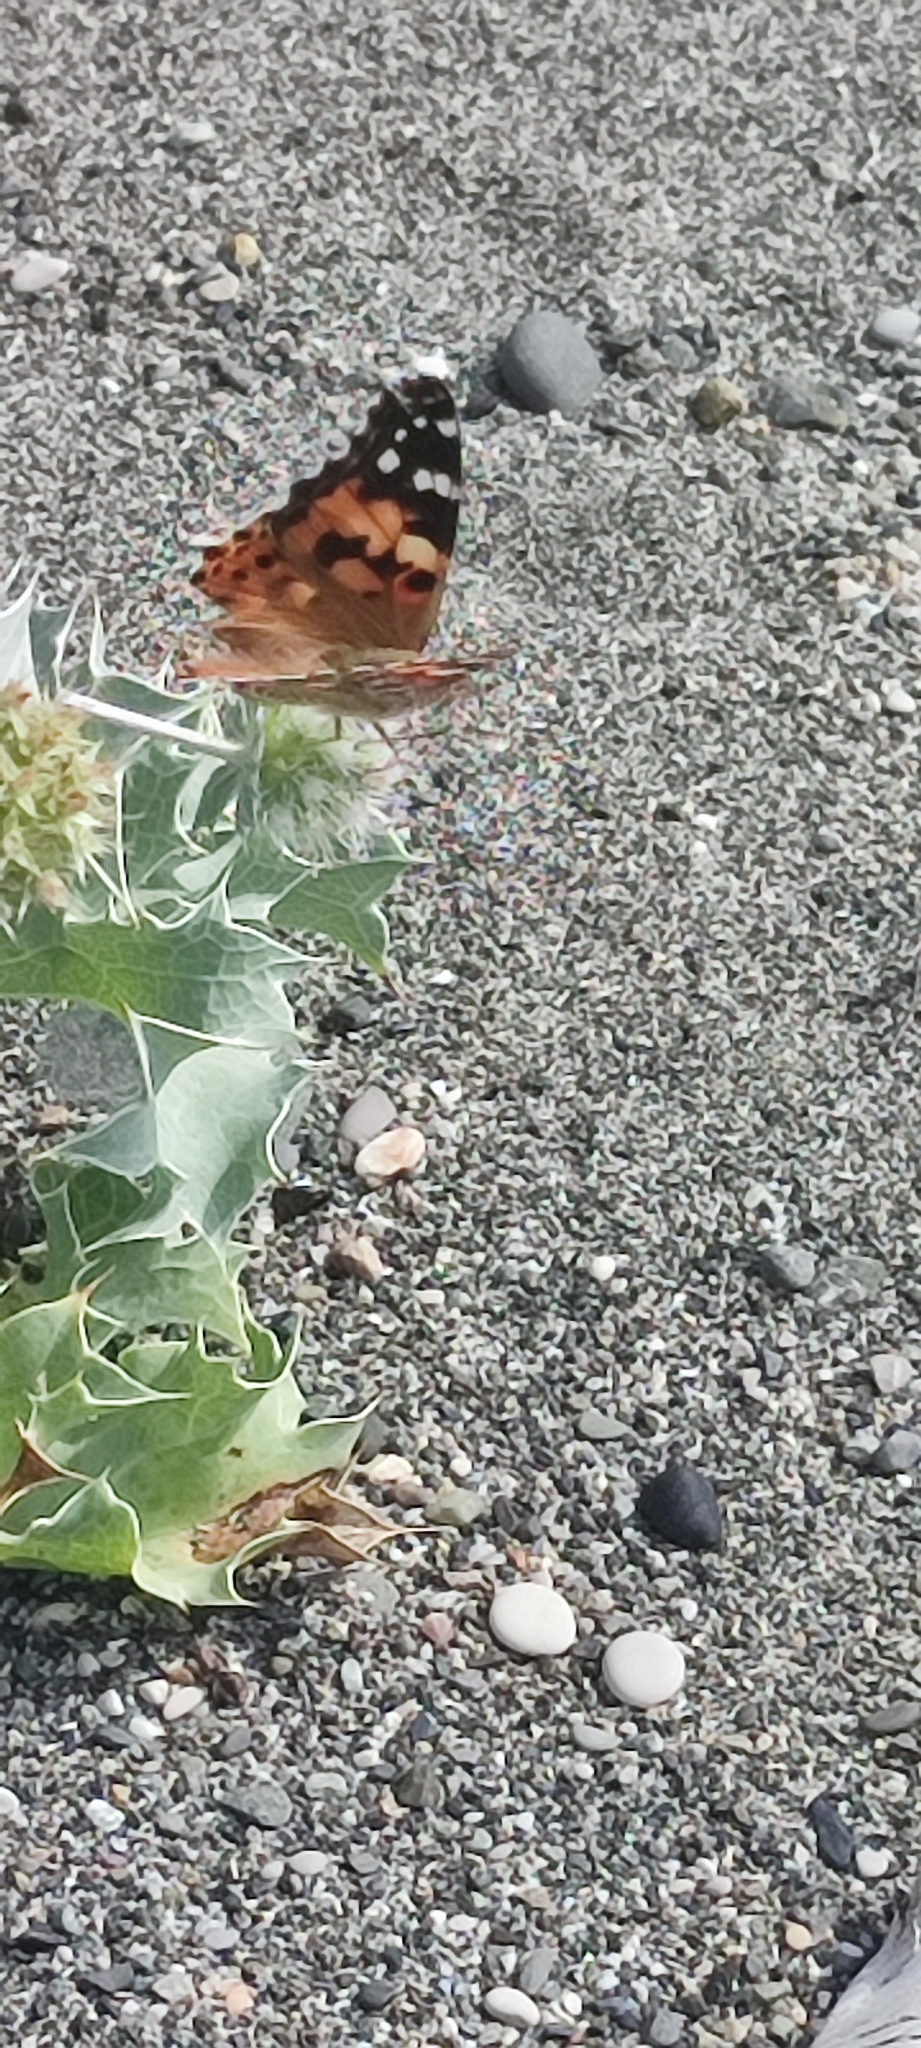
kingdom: Animalia
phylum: Arthropoda
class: Insecta
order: Lepidoptera
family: Nymphalidae
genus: Vanessa
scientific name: Vanessa cardui
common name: Painted lady
